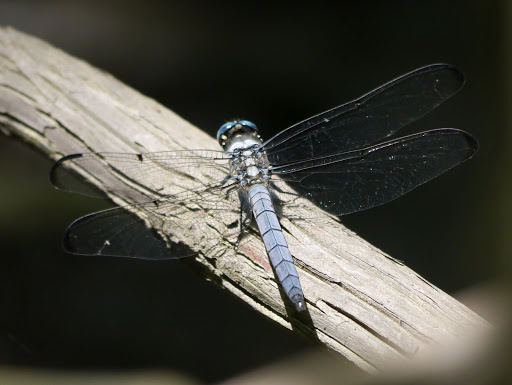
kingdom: Animalia
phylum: Arthropoda
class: Insecta
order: Odonata
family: Libellulidae
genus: Libellula
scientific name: Libellula vibrans
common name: Great blue skimmer
